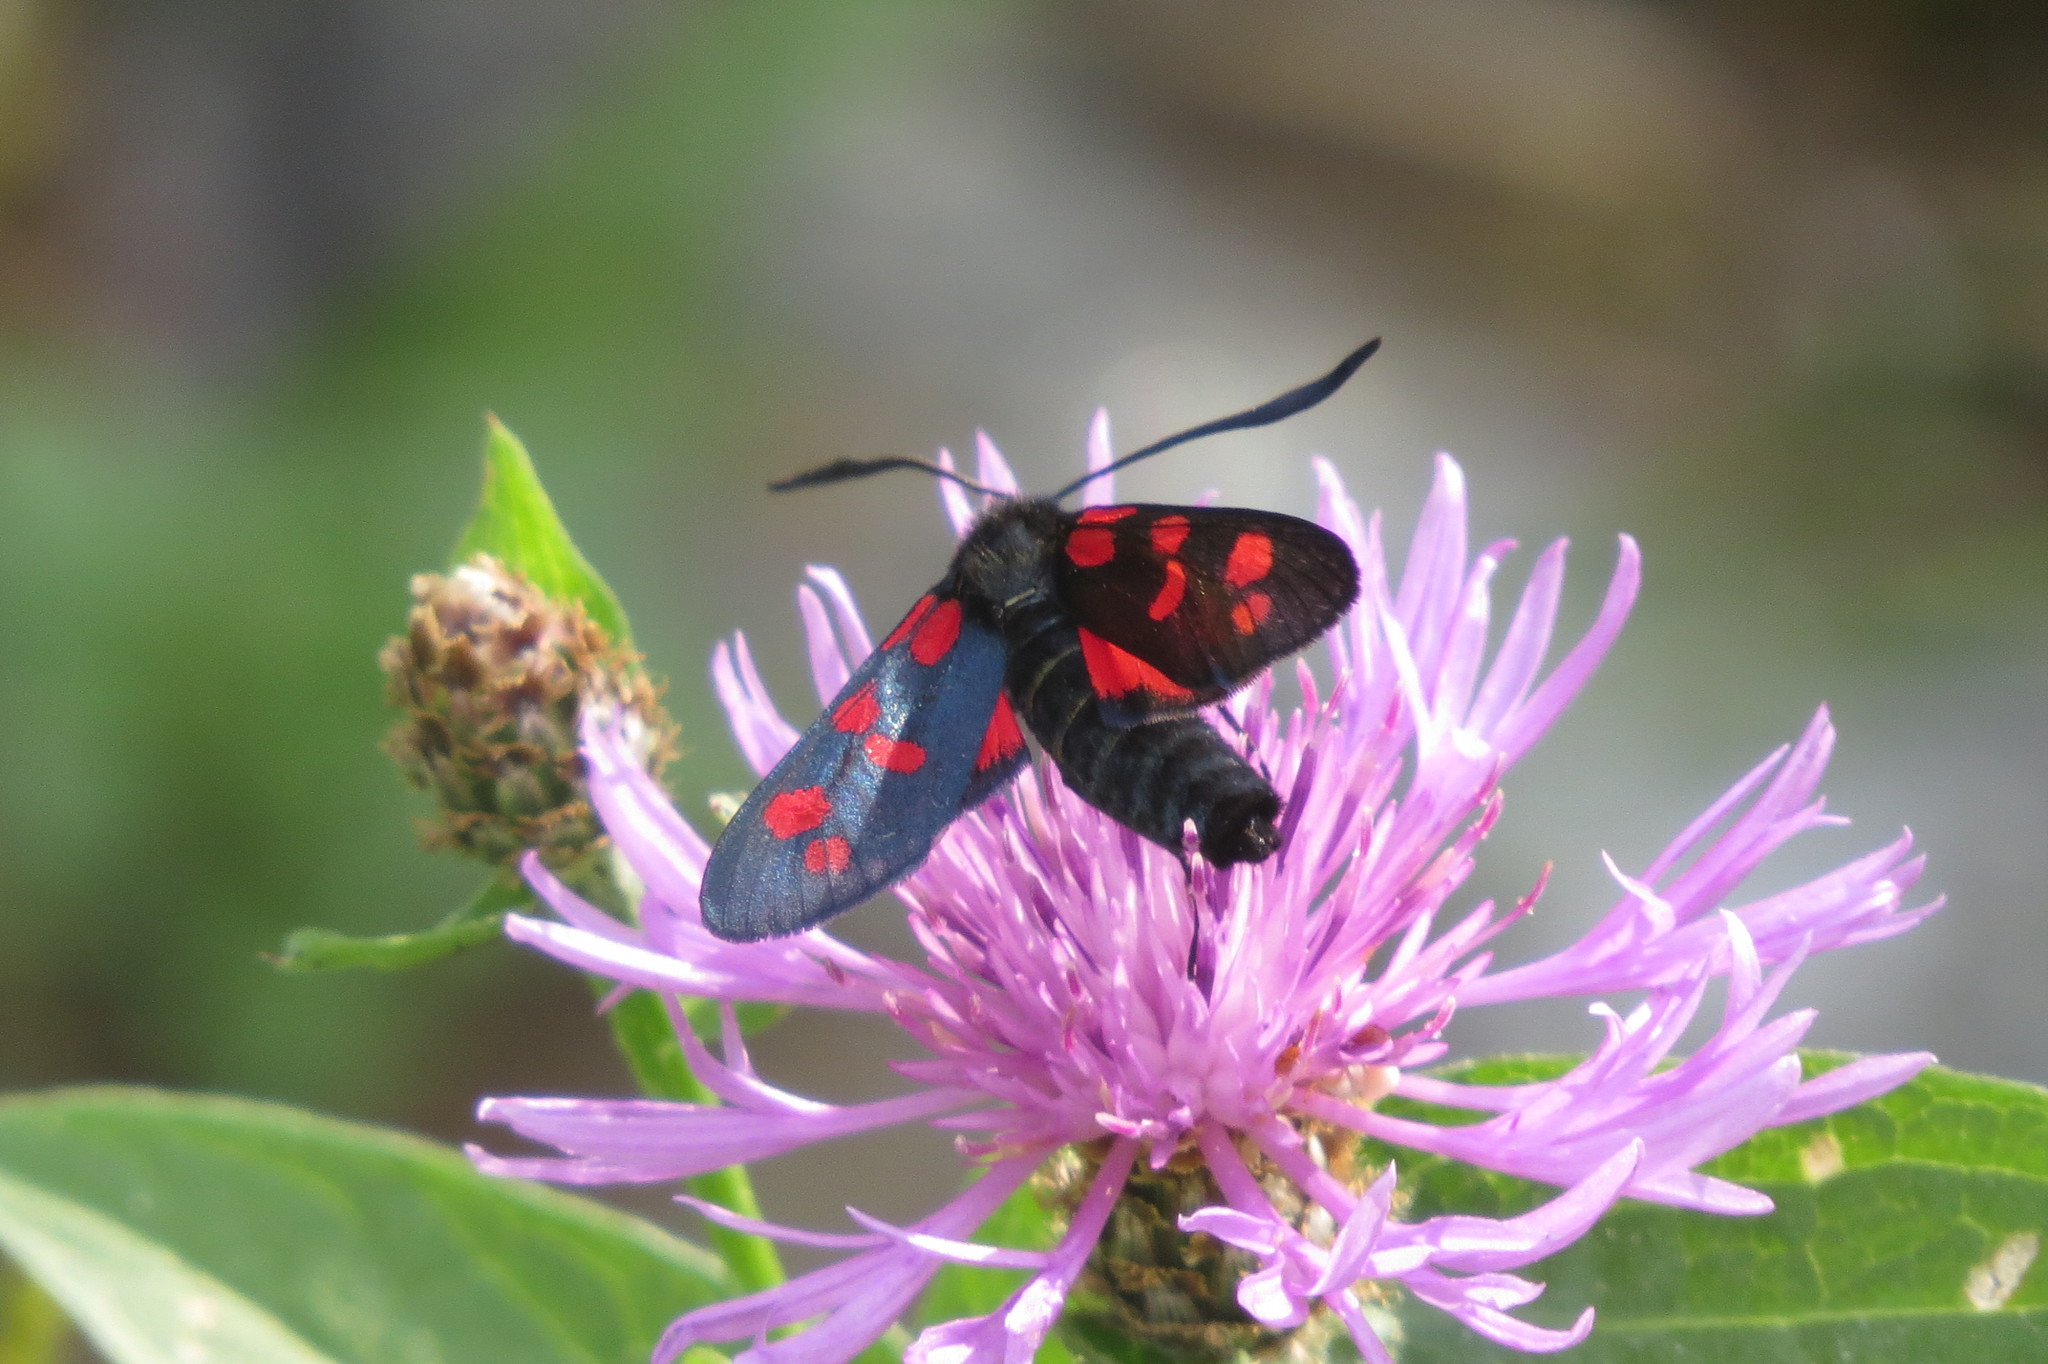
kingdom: Animalia
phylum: Arthropoda
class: Insecta
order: Lepidoptera
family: Zygaenidae
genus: Zygaena
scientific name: Zygaena filipendulae
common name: Six-spot burnet
